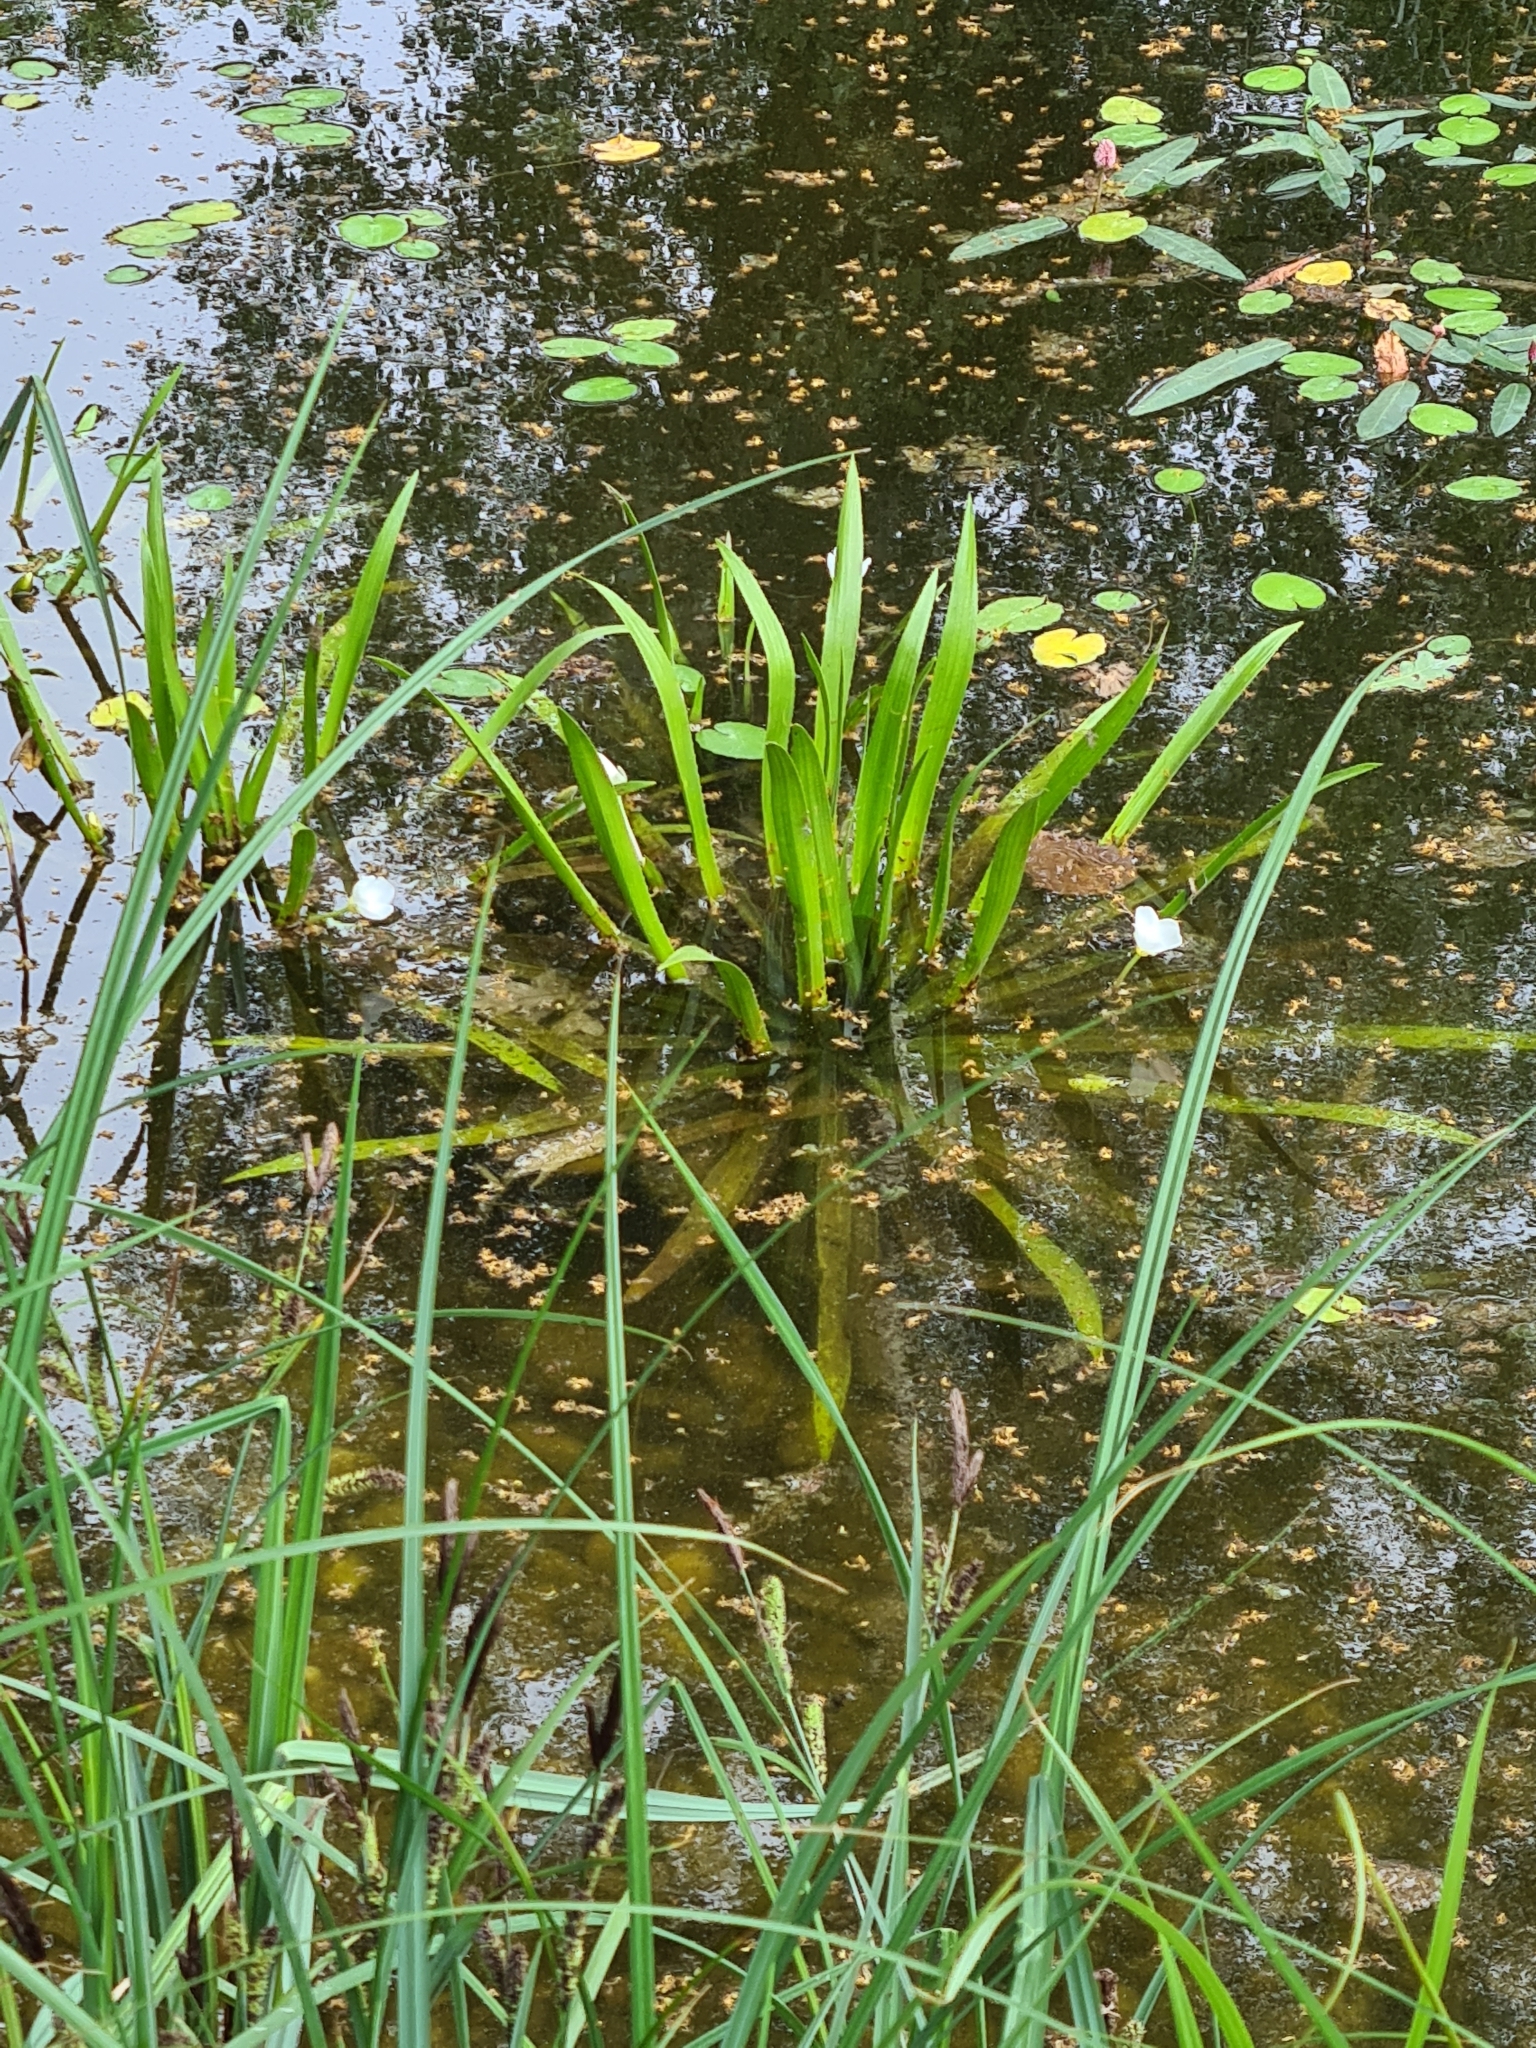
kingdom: Plantae
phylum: Tracheophyta
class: Liliopsida
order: Alismatales
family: Hydrocharitaceae
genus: Stratiotes
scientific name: Stratiotes aloides
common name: Water-soldier
